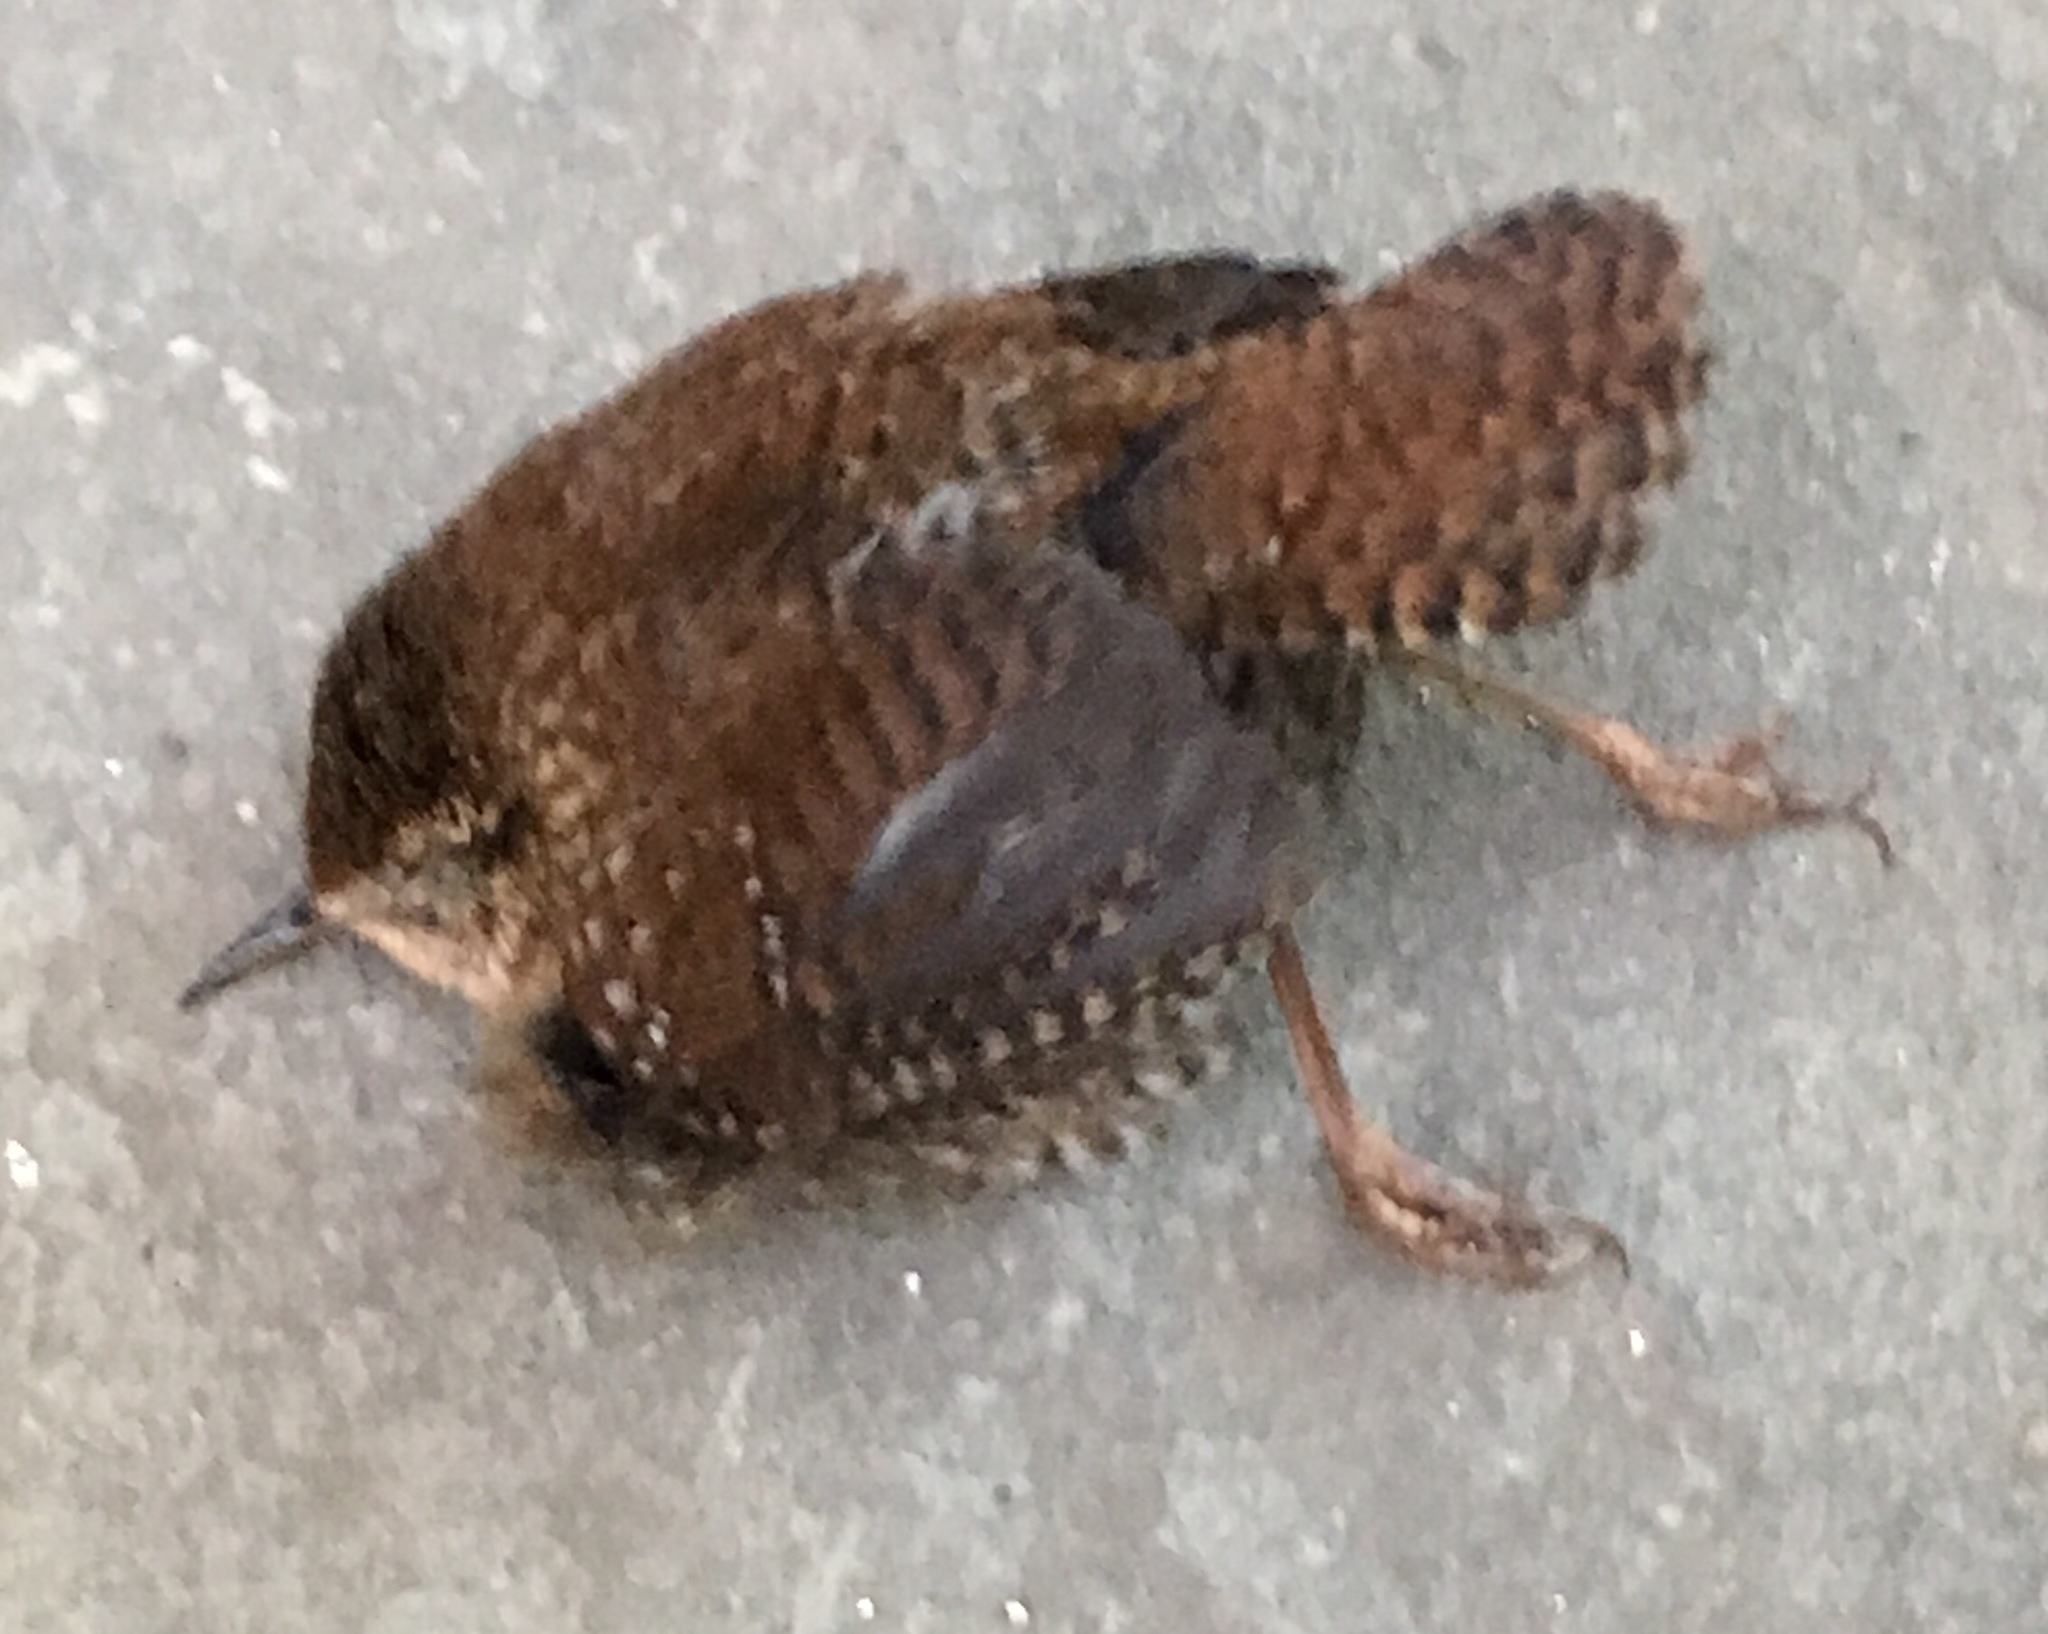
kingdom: Animalia
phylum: Chordata
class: Aves
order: Passeriformes
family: Troglodytidae
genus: Troglodytes
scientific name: Troglodytes hiemalis
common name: Winter wren
